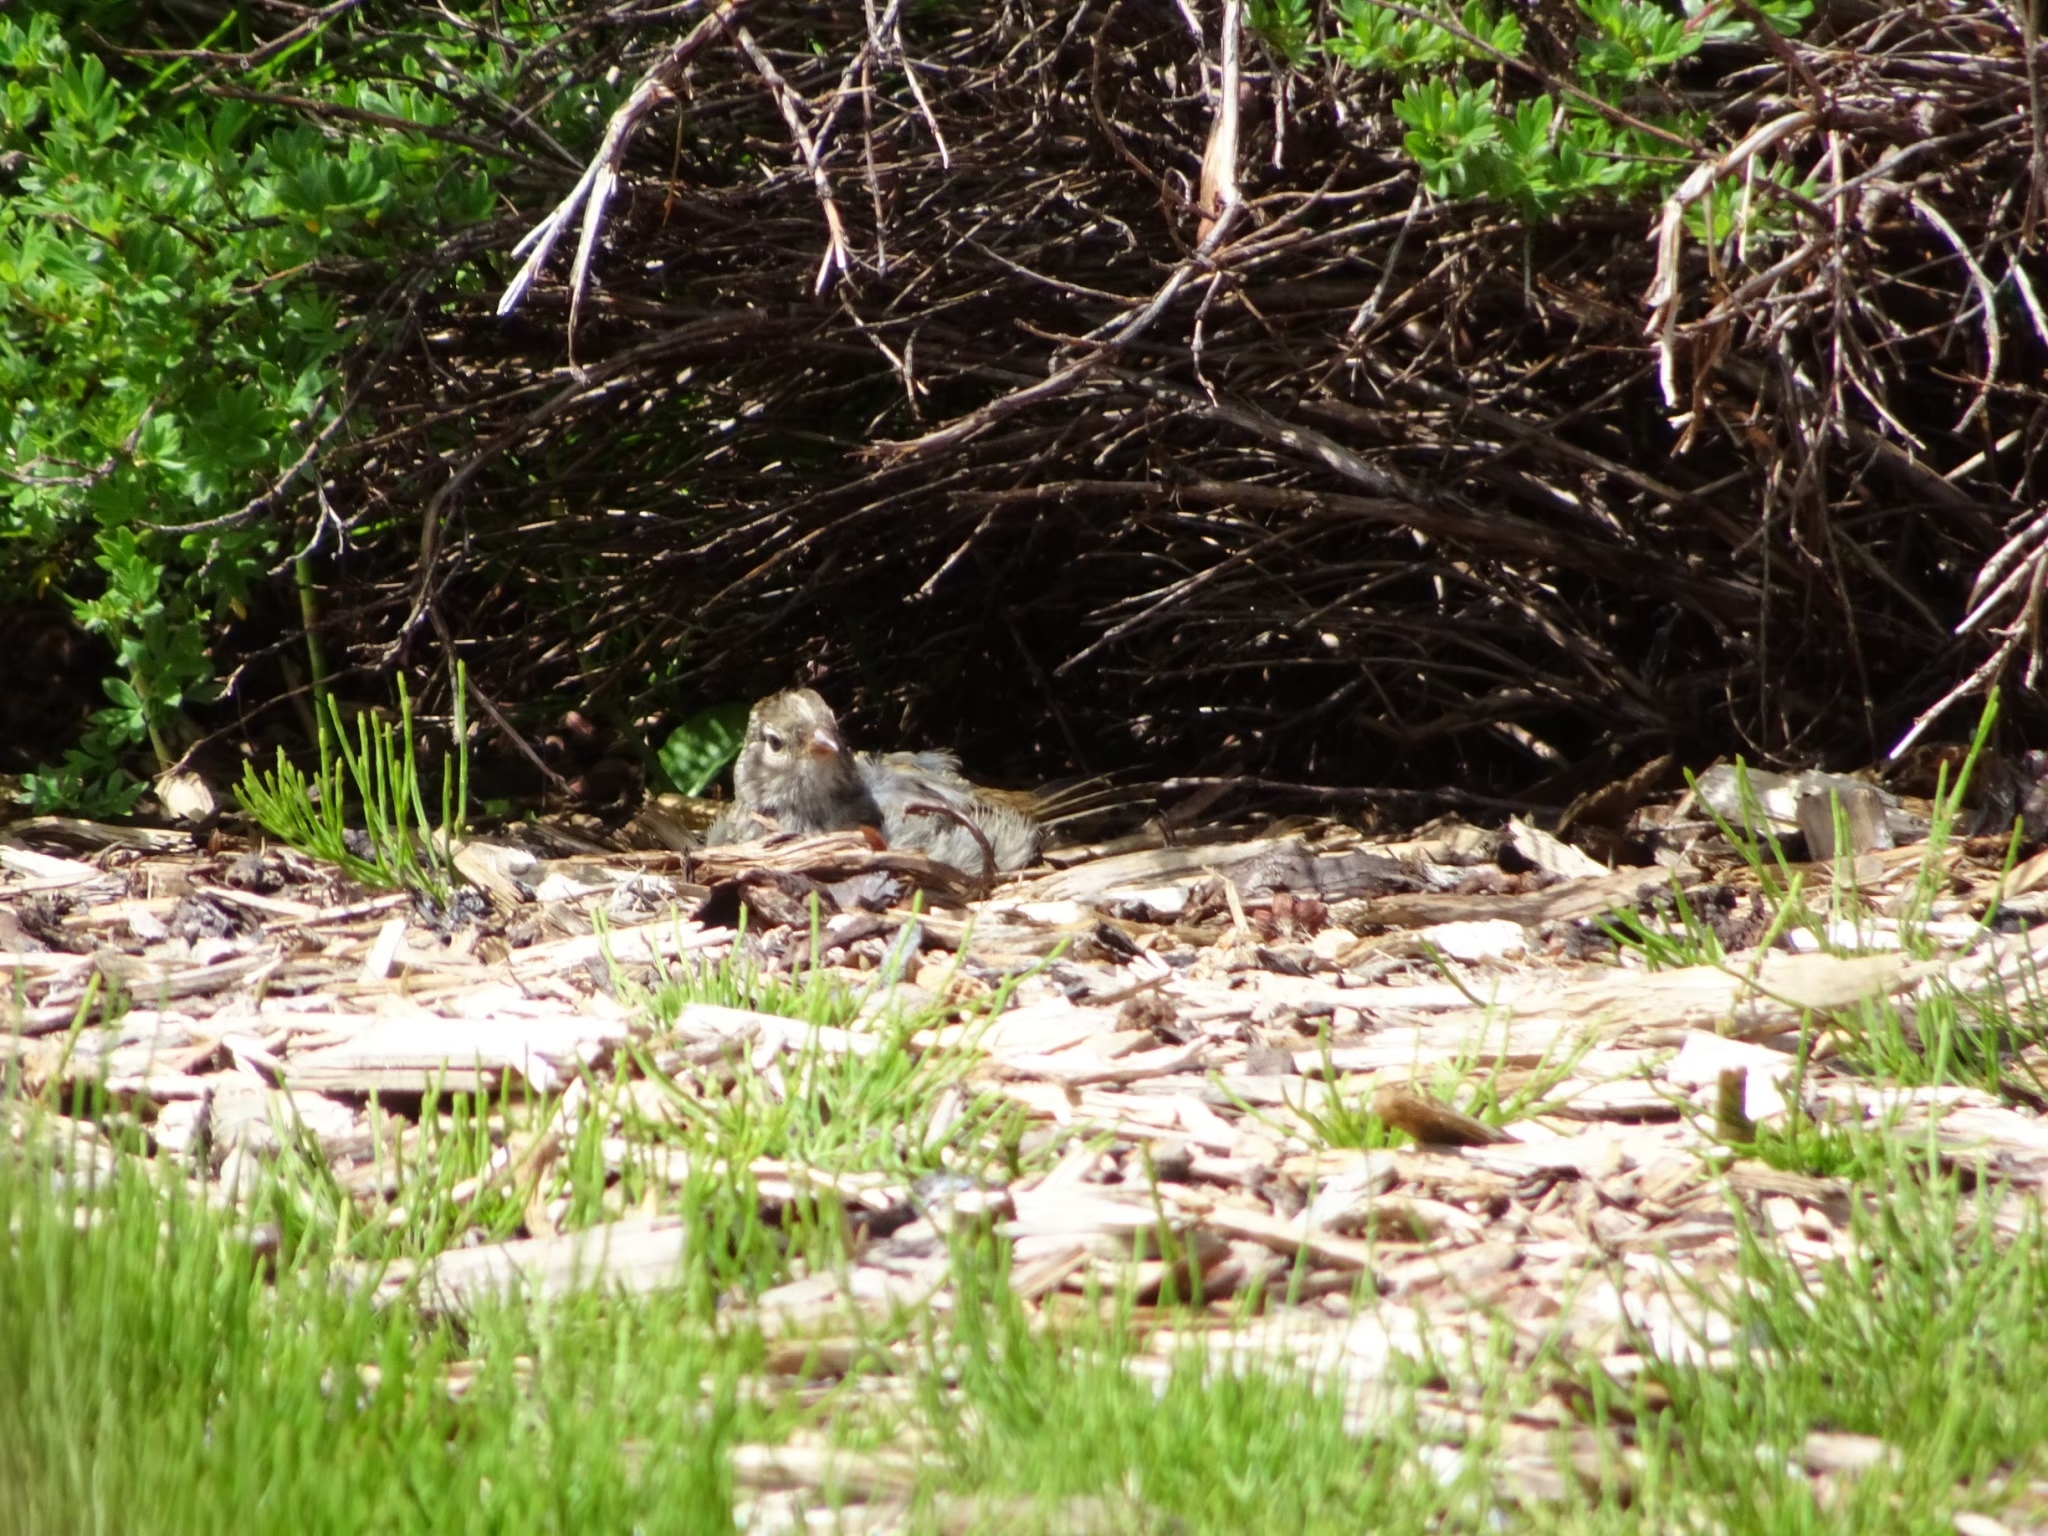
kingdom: Animalia
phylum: Chordata
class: Aves
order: Passeriformes
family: Passerellidae
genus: Spizella
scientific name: Spizella passerina
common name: Chipping sparrow
